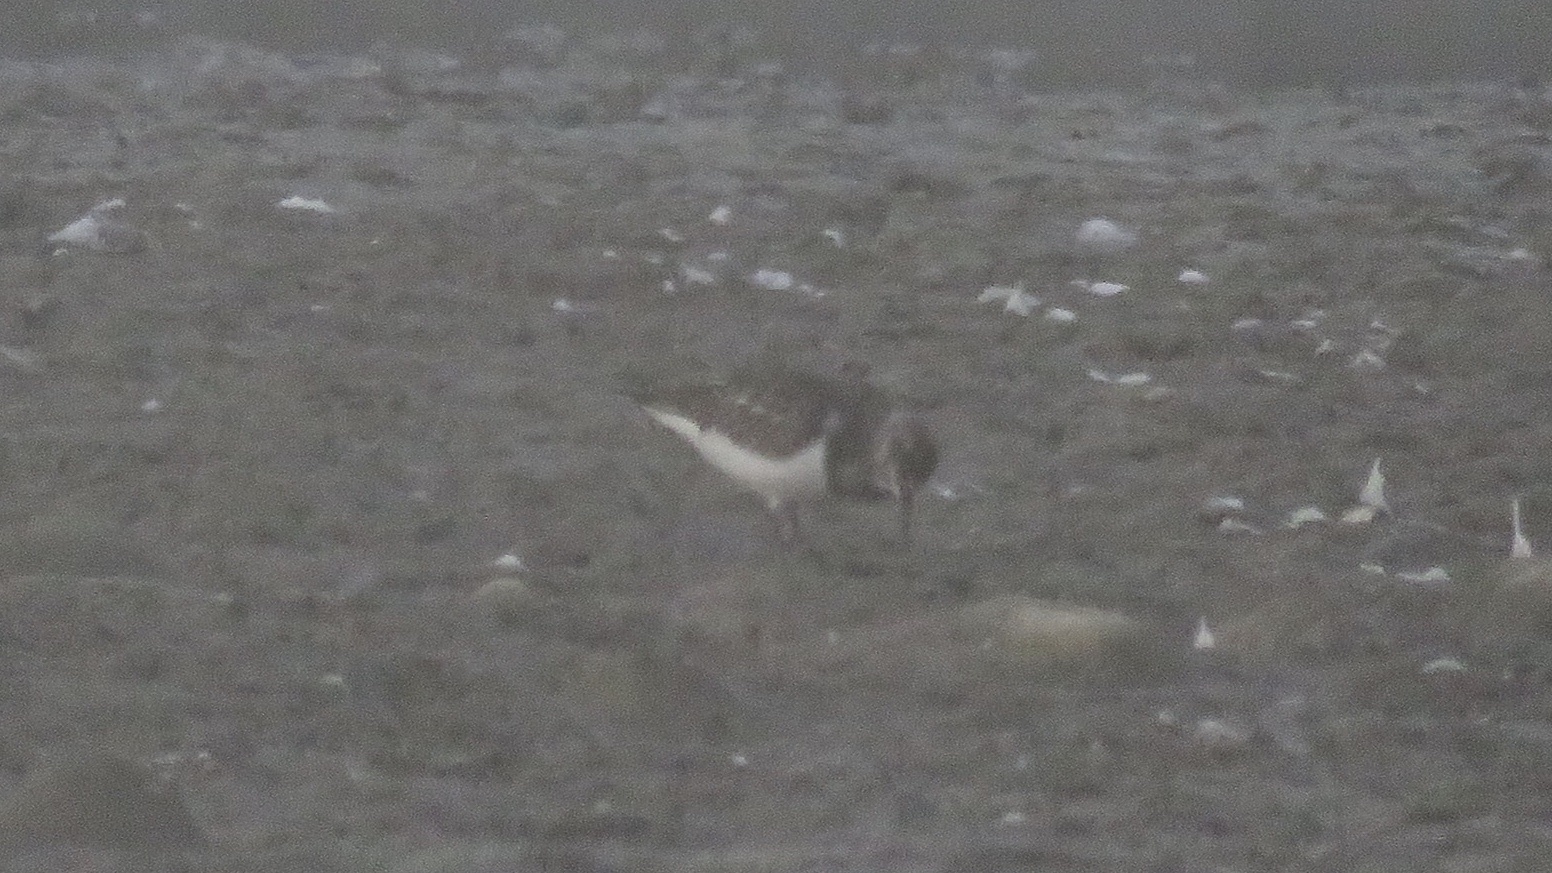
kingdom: Animalia
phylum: Chordata
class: Aves
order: Charadriiformes
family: Scolopacidae
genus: Arenaria
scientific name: Arenaria interpres
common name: Ruddy turnstone
